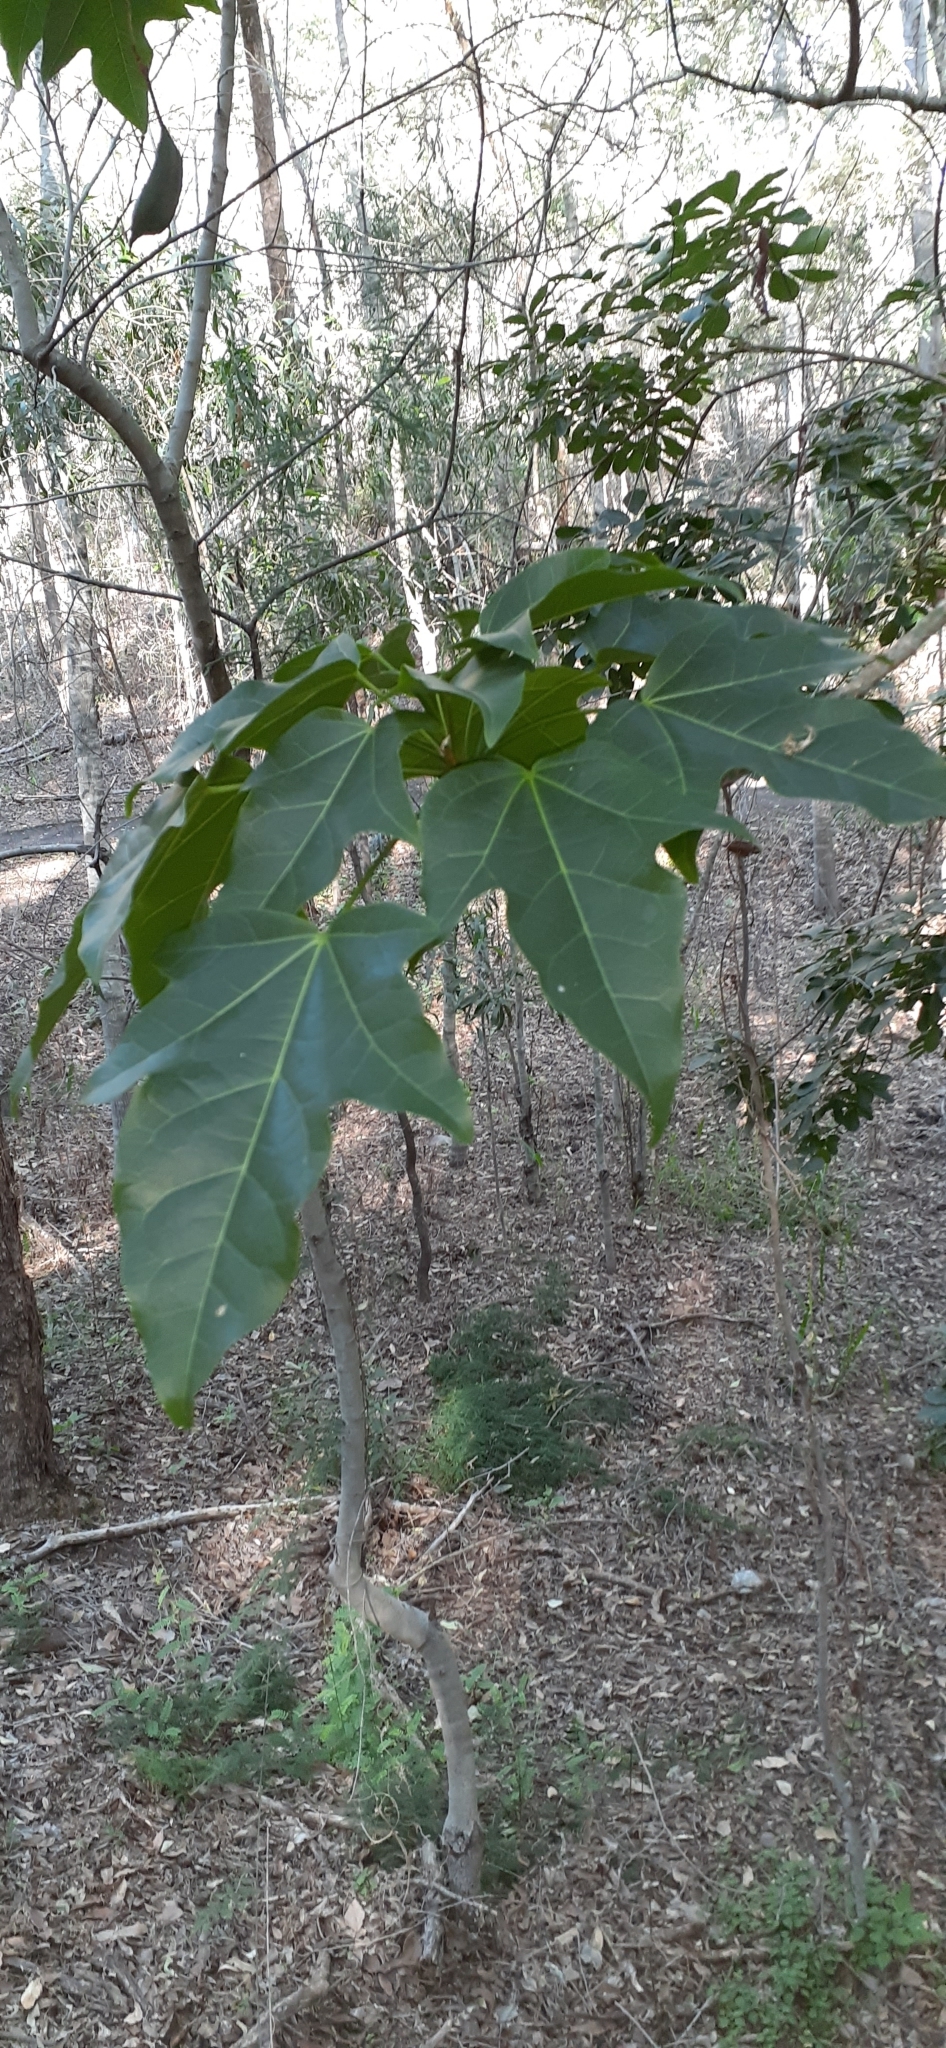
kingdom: Plantae
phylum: Tracheophyta
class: Magnoliopsida
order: Malvales
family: Malvaceae
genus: Brachychiton
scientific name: Brachychiton acerifolius
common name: Illawarra flame tree
